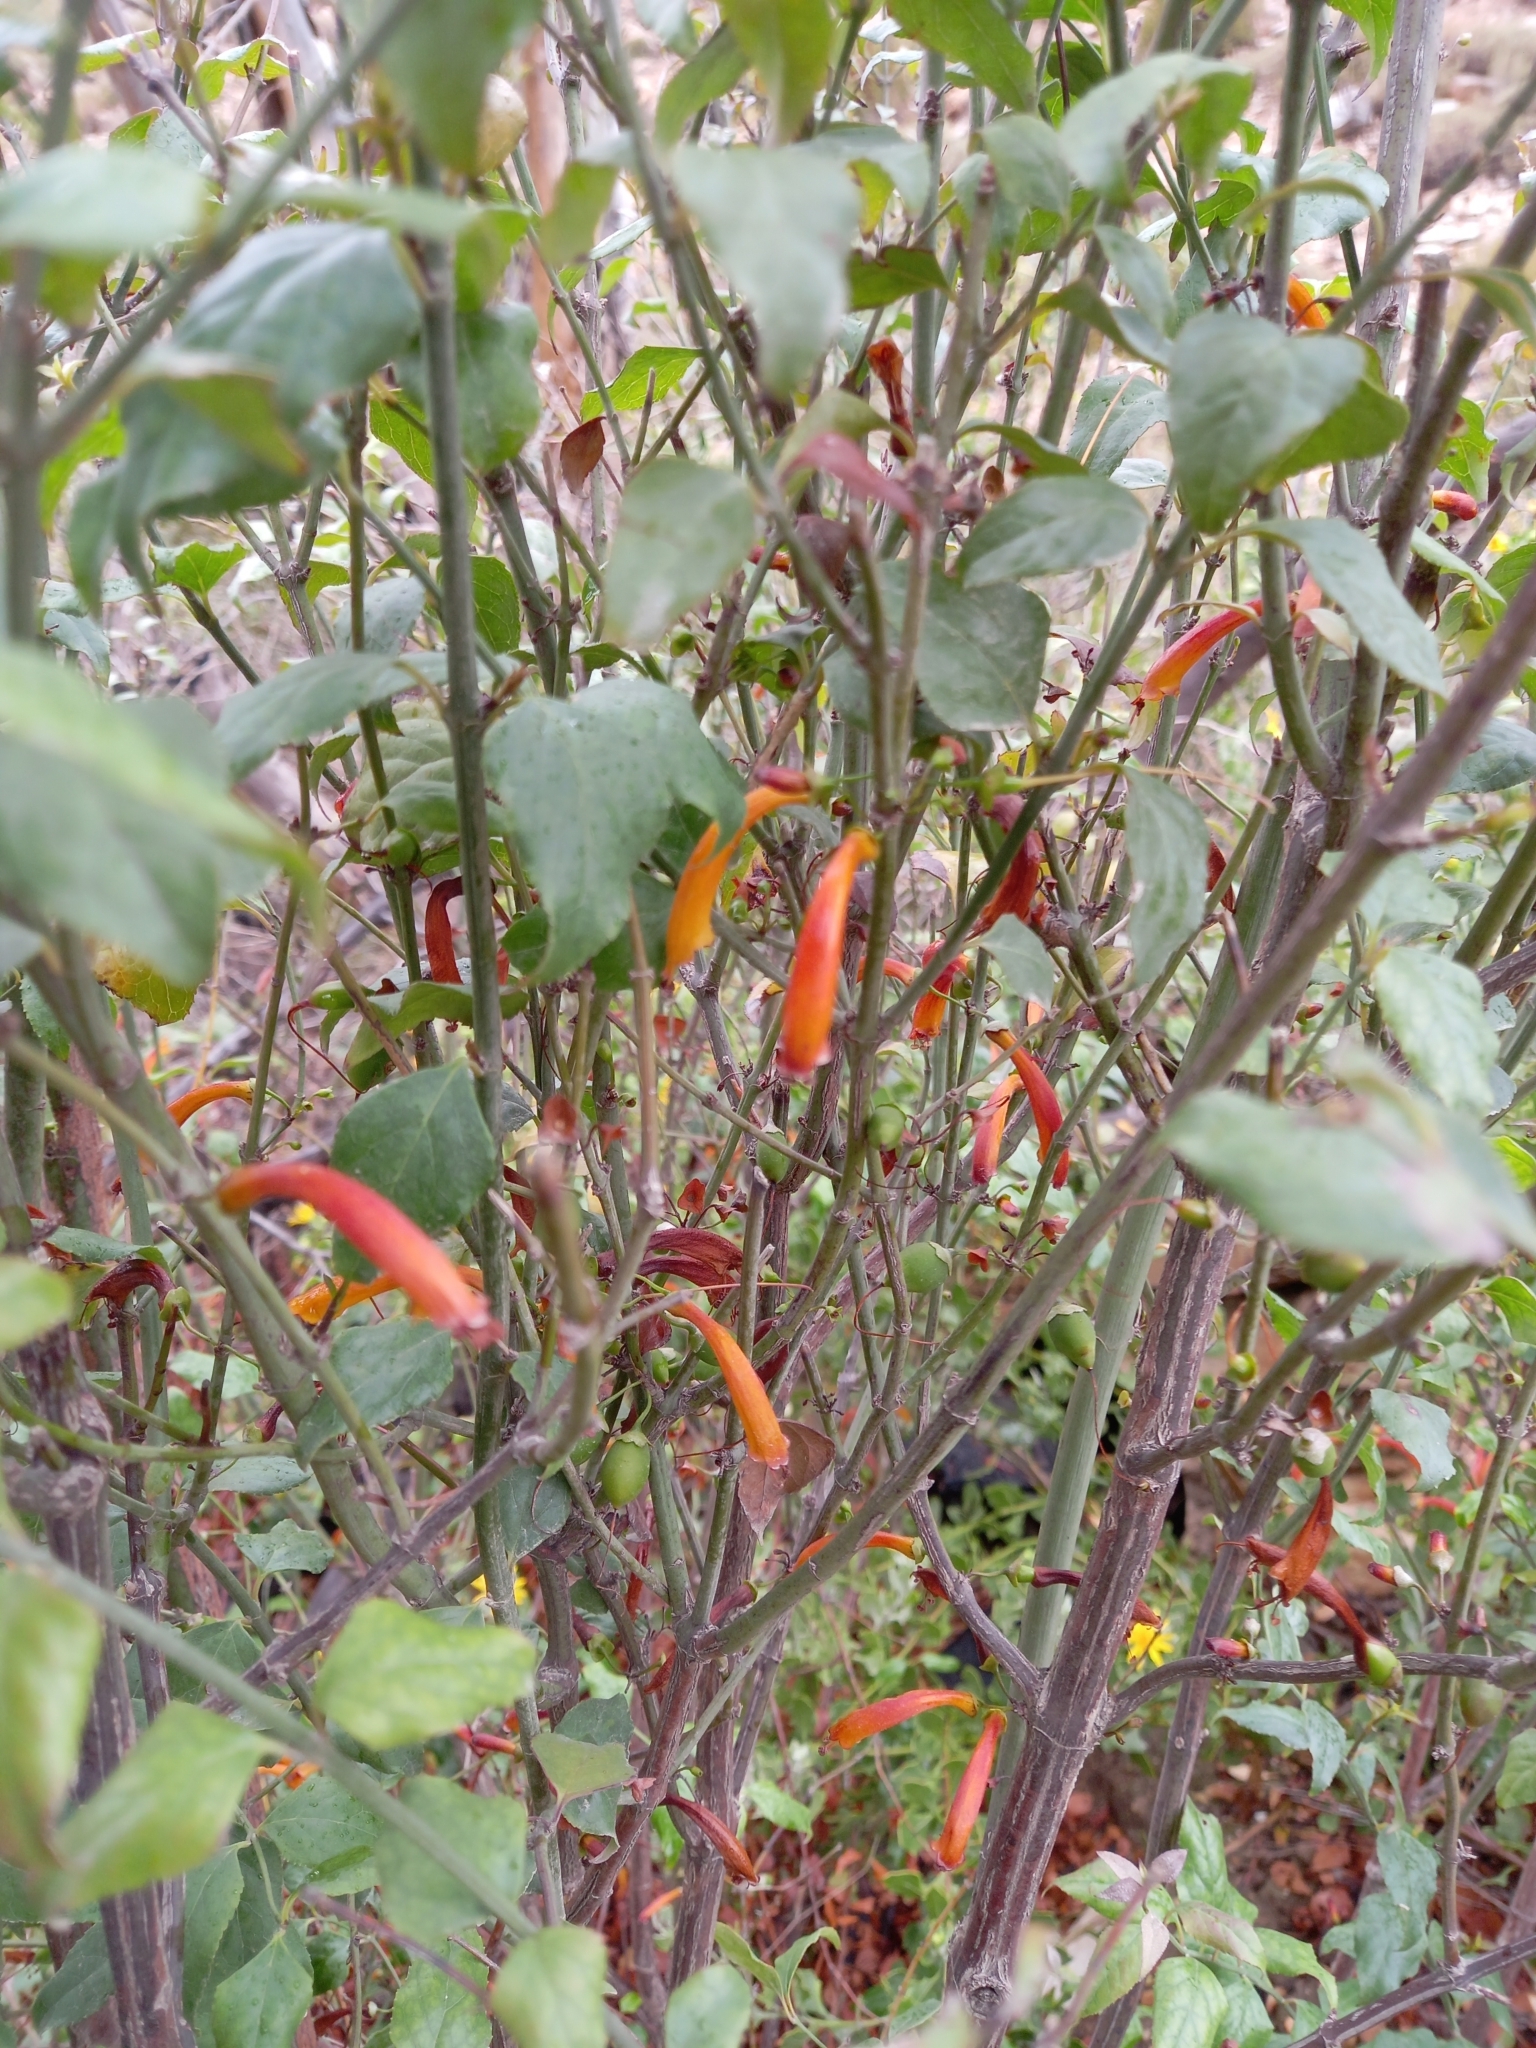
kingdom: Plantae
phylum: Tracheophyta
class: Magnoliopsida
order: Lamiales
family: Stilbaceae
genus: Halleria
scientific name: Halleria lucida
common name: Tree fuschia
